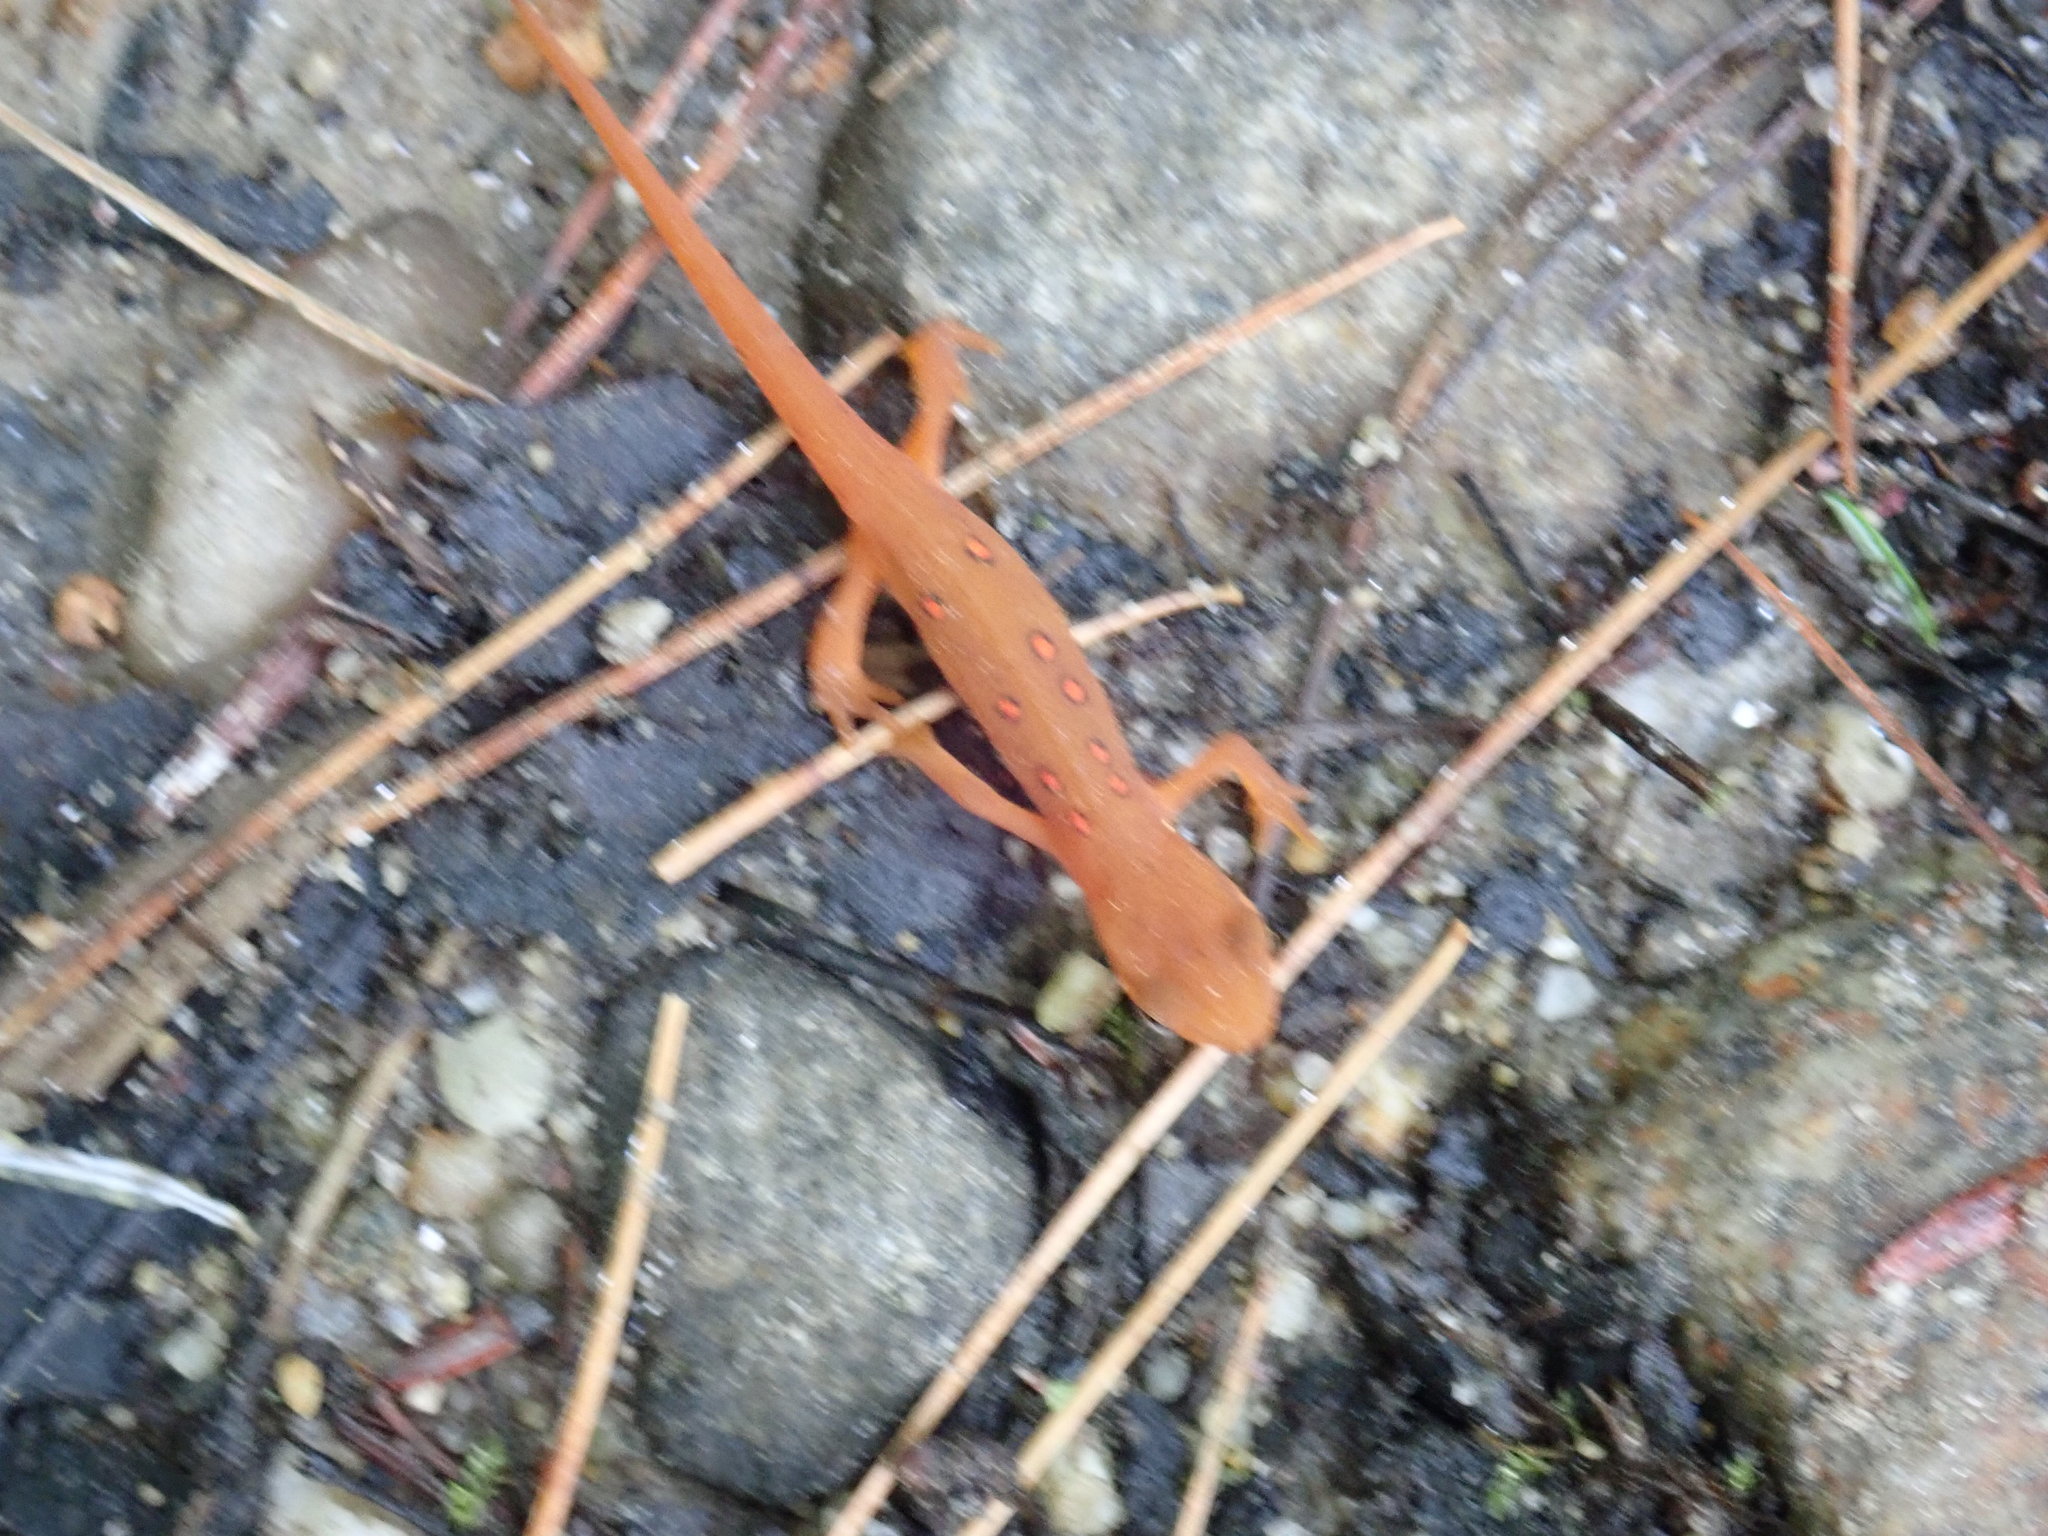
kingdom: Animalia
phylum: Chordata
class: Amphibia
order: Caudata
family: Salamandridae
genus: Notophthalmus
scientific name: Notophthalmus viridescens
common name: Eastern newt
